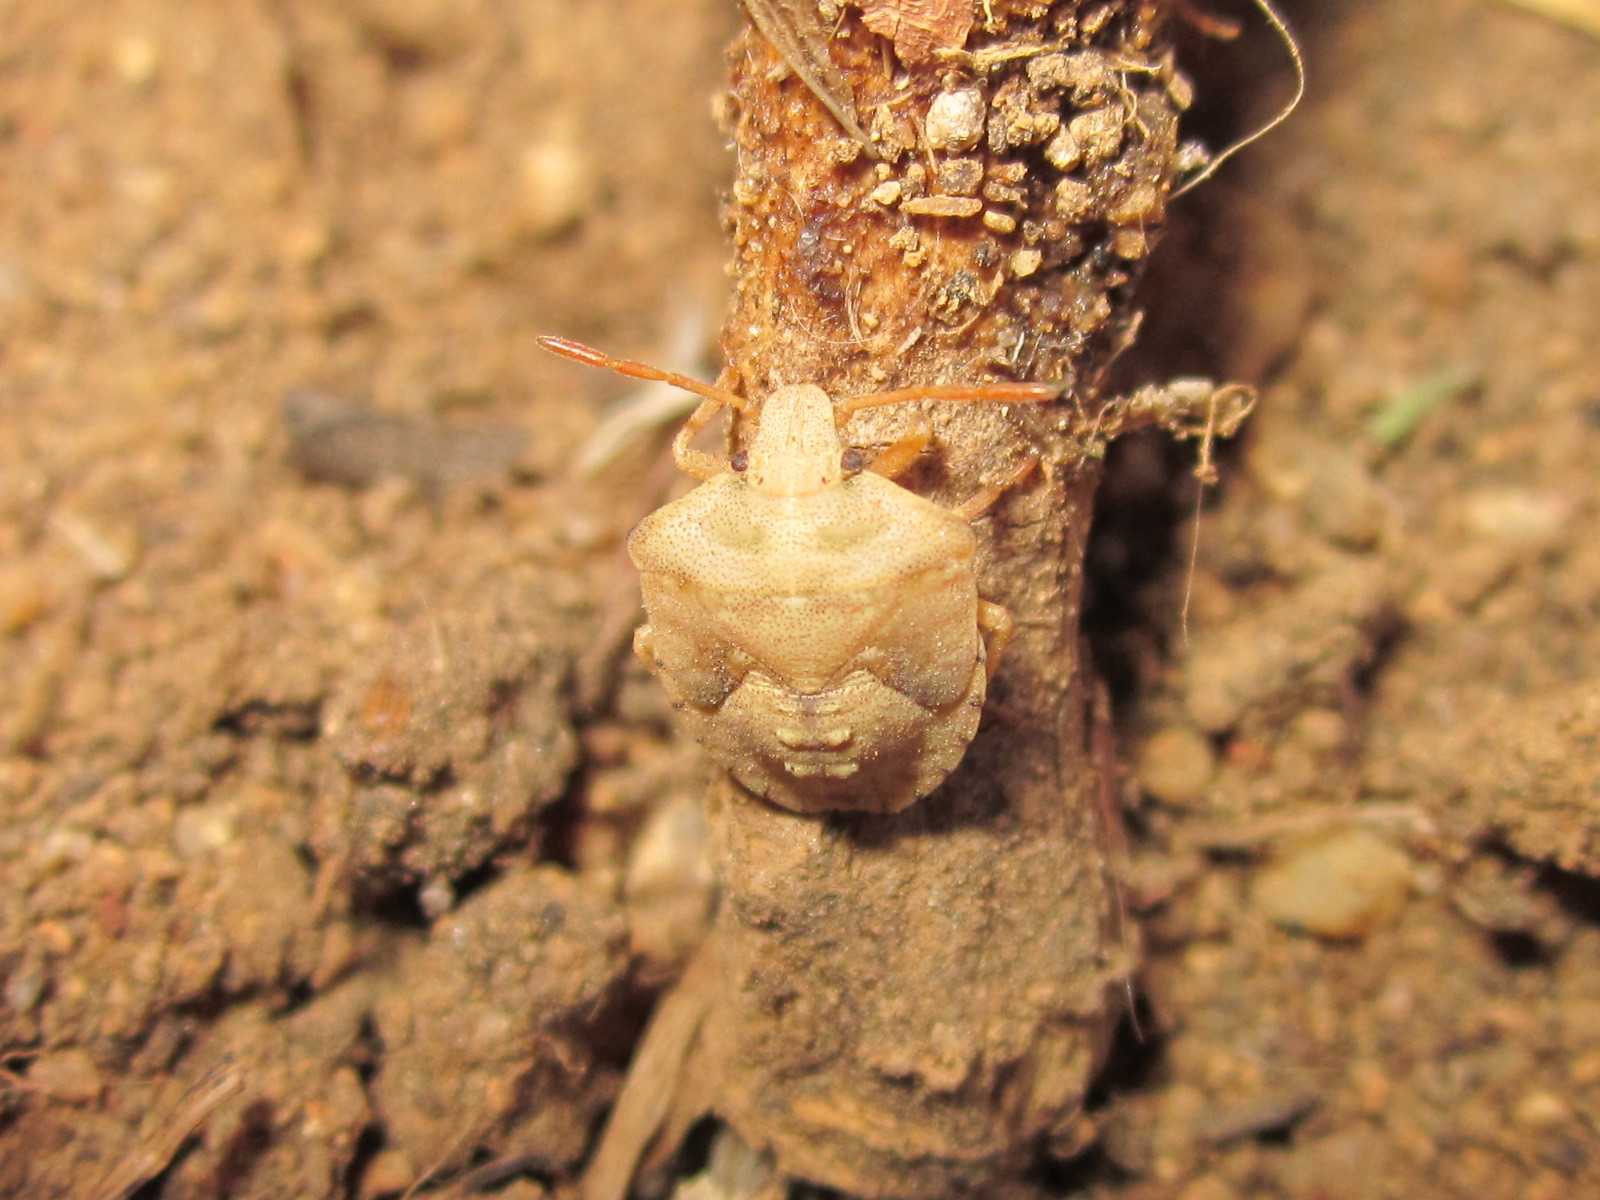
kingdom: Animalia
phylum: Arthropoda
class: Insecta
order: Hemiptera
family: Pentatomidae
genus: Acledra
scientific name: Acledra
